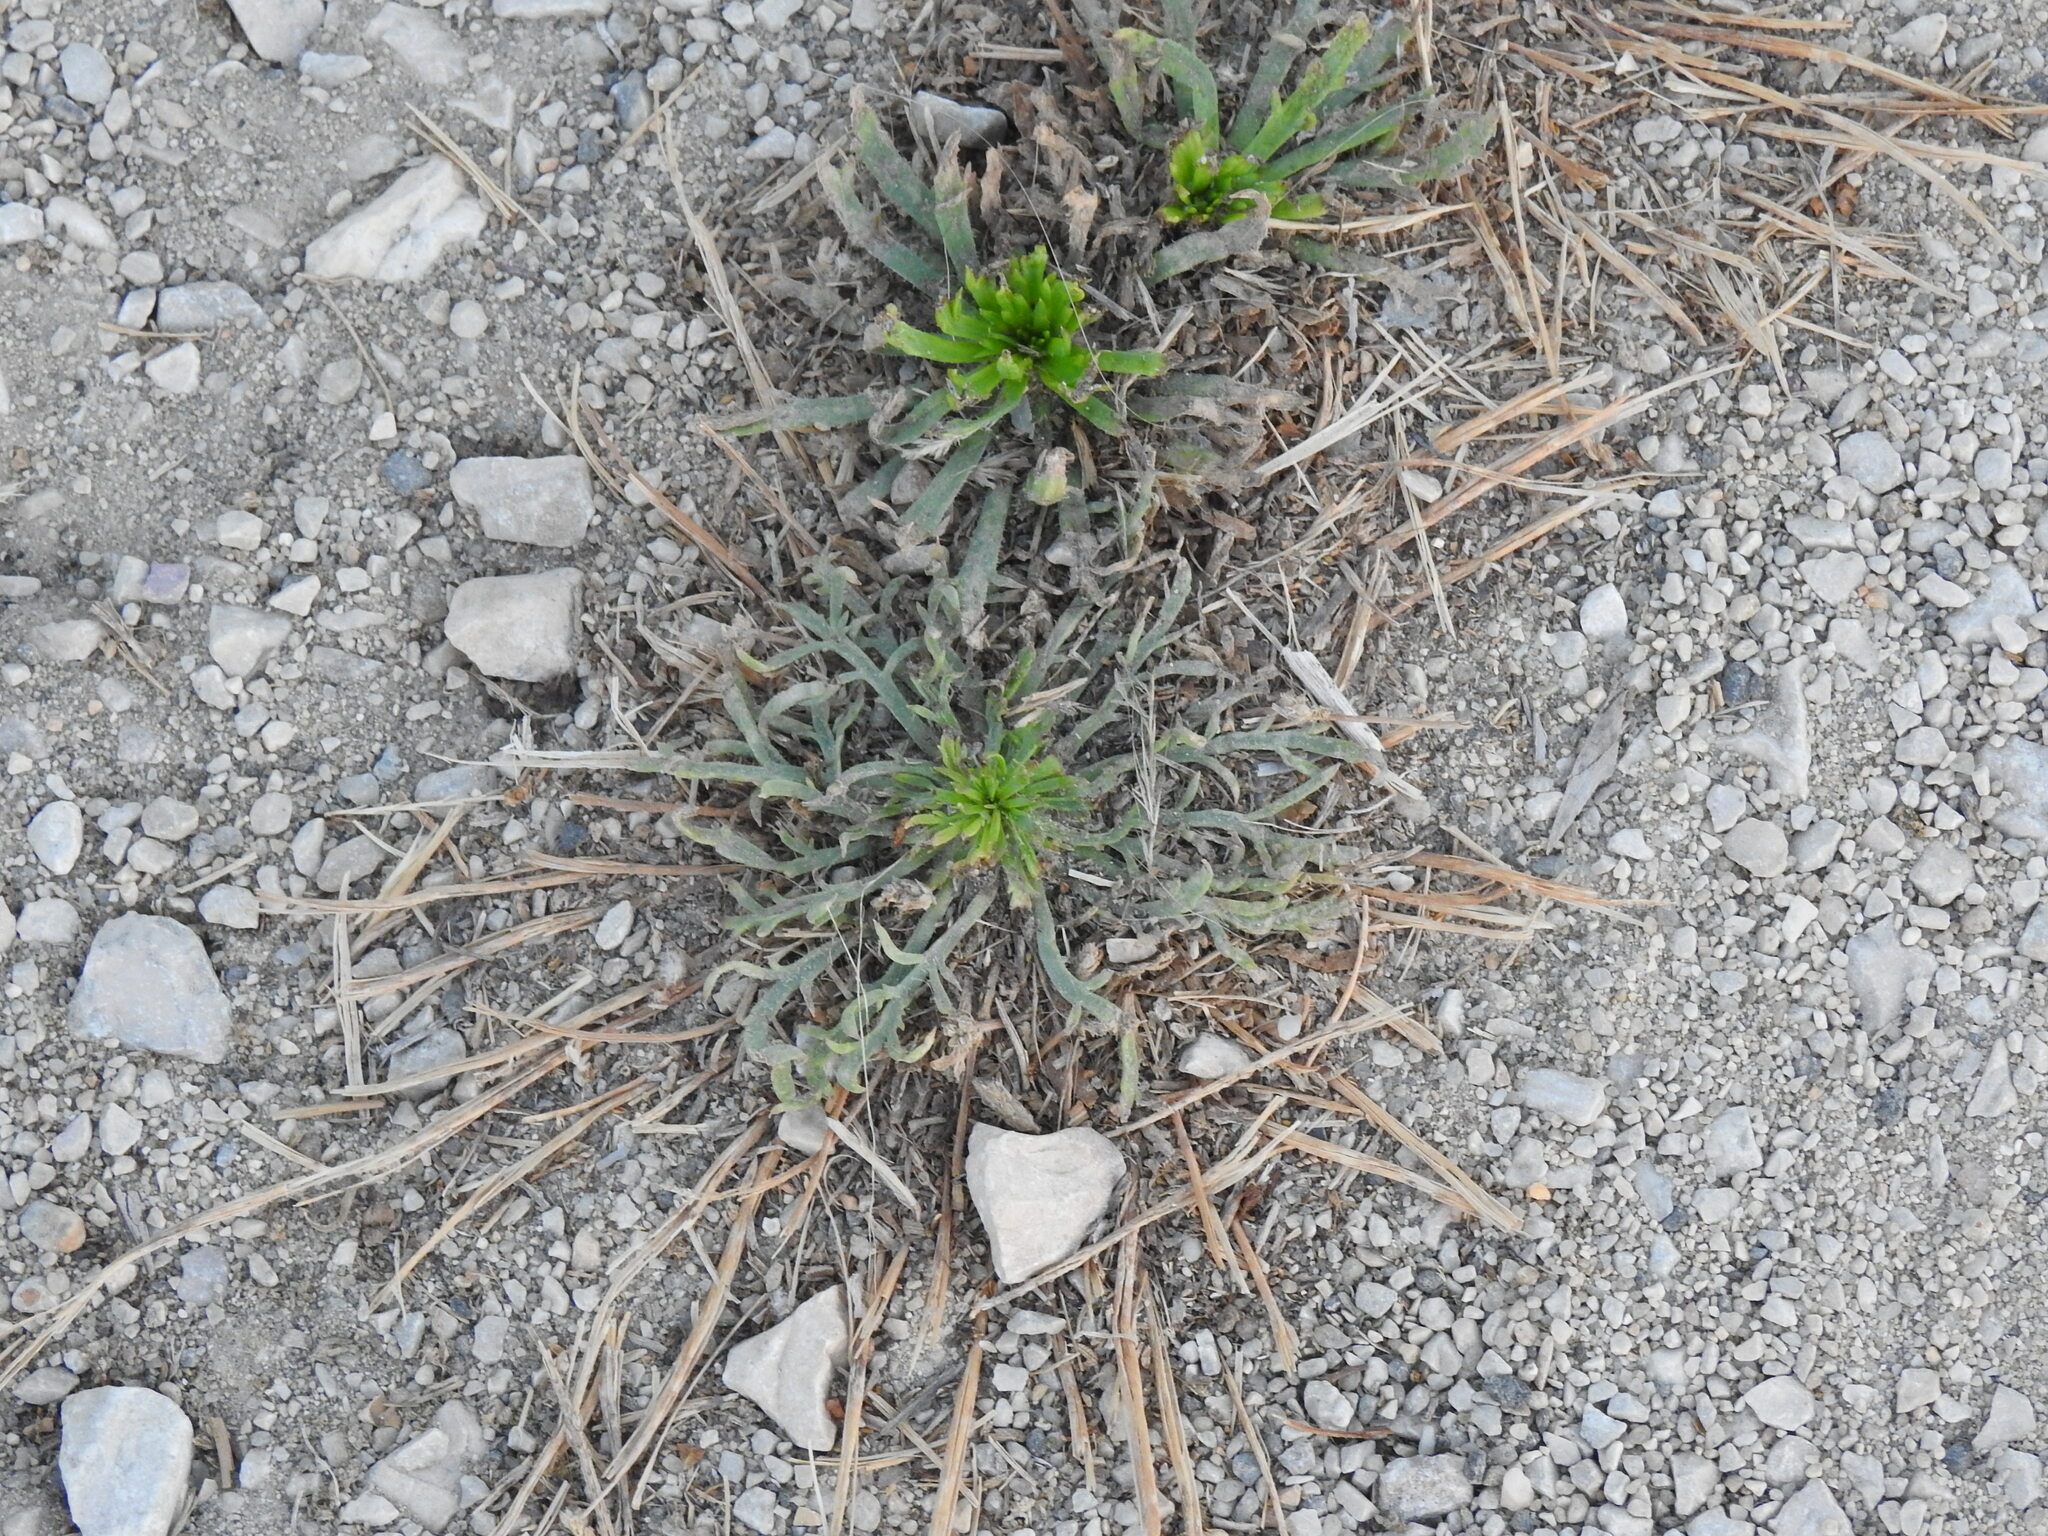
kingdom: Plantae
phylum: Tracheophyta
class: Magnoliopsida
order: Lamiales
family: Plantaginaceae
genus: Plantago
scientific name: Plantago coronopus
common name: Buck's-horn plantain
